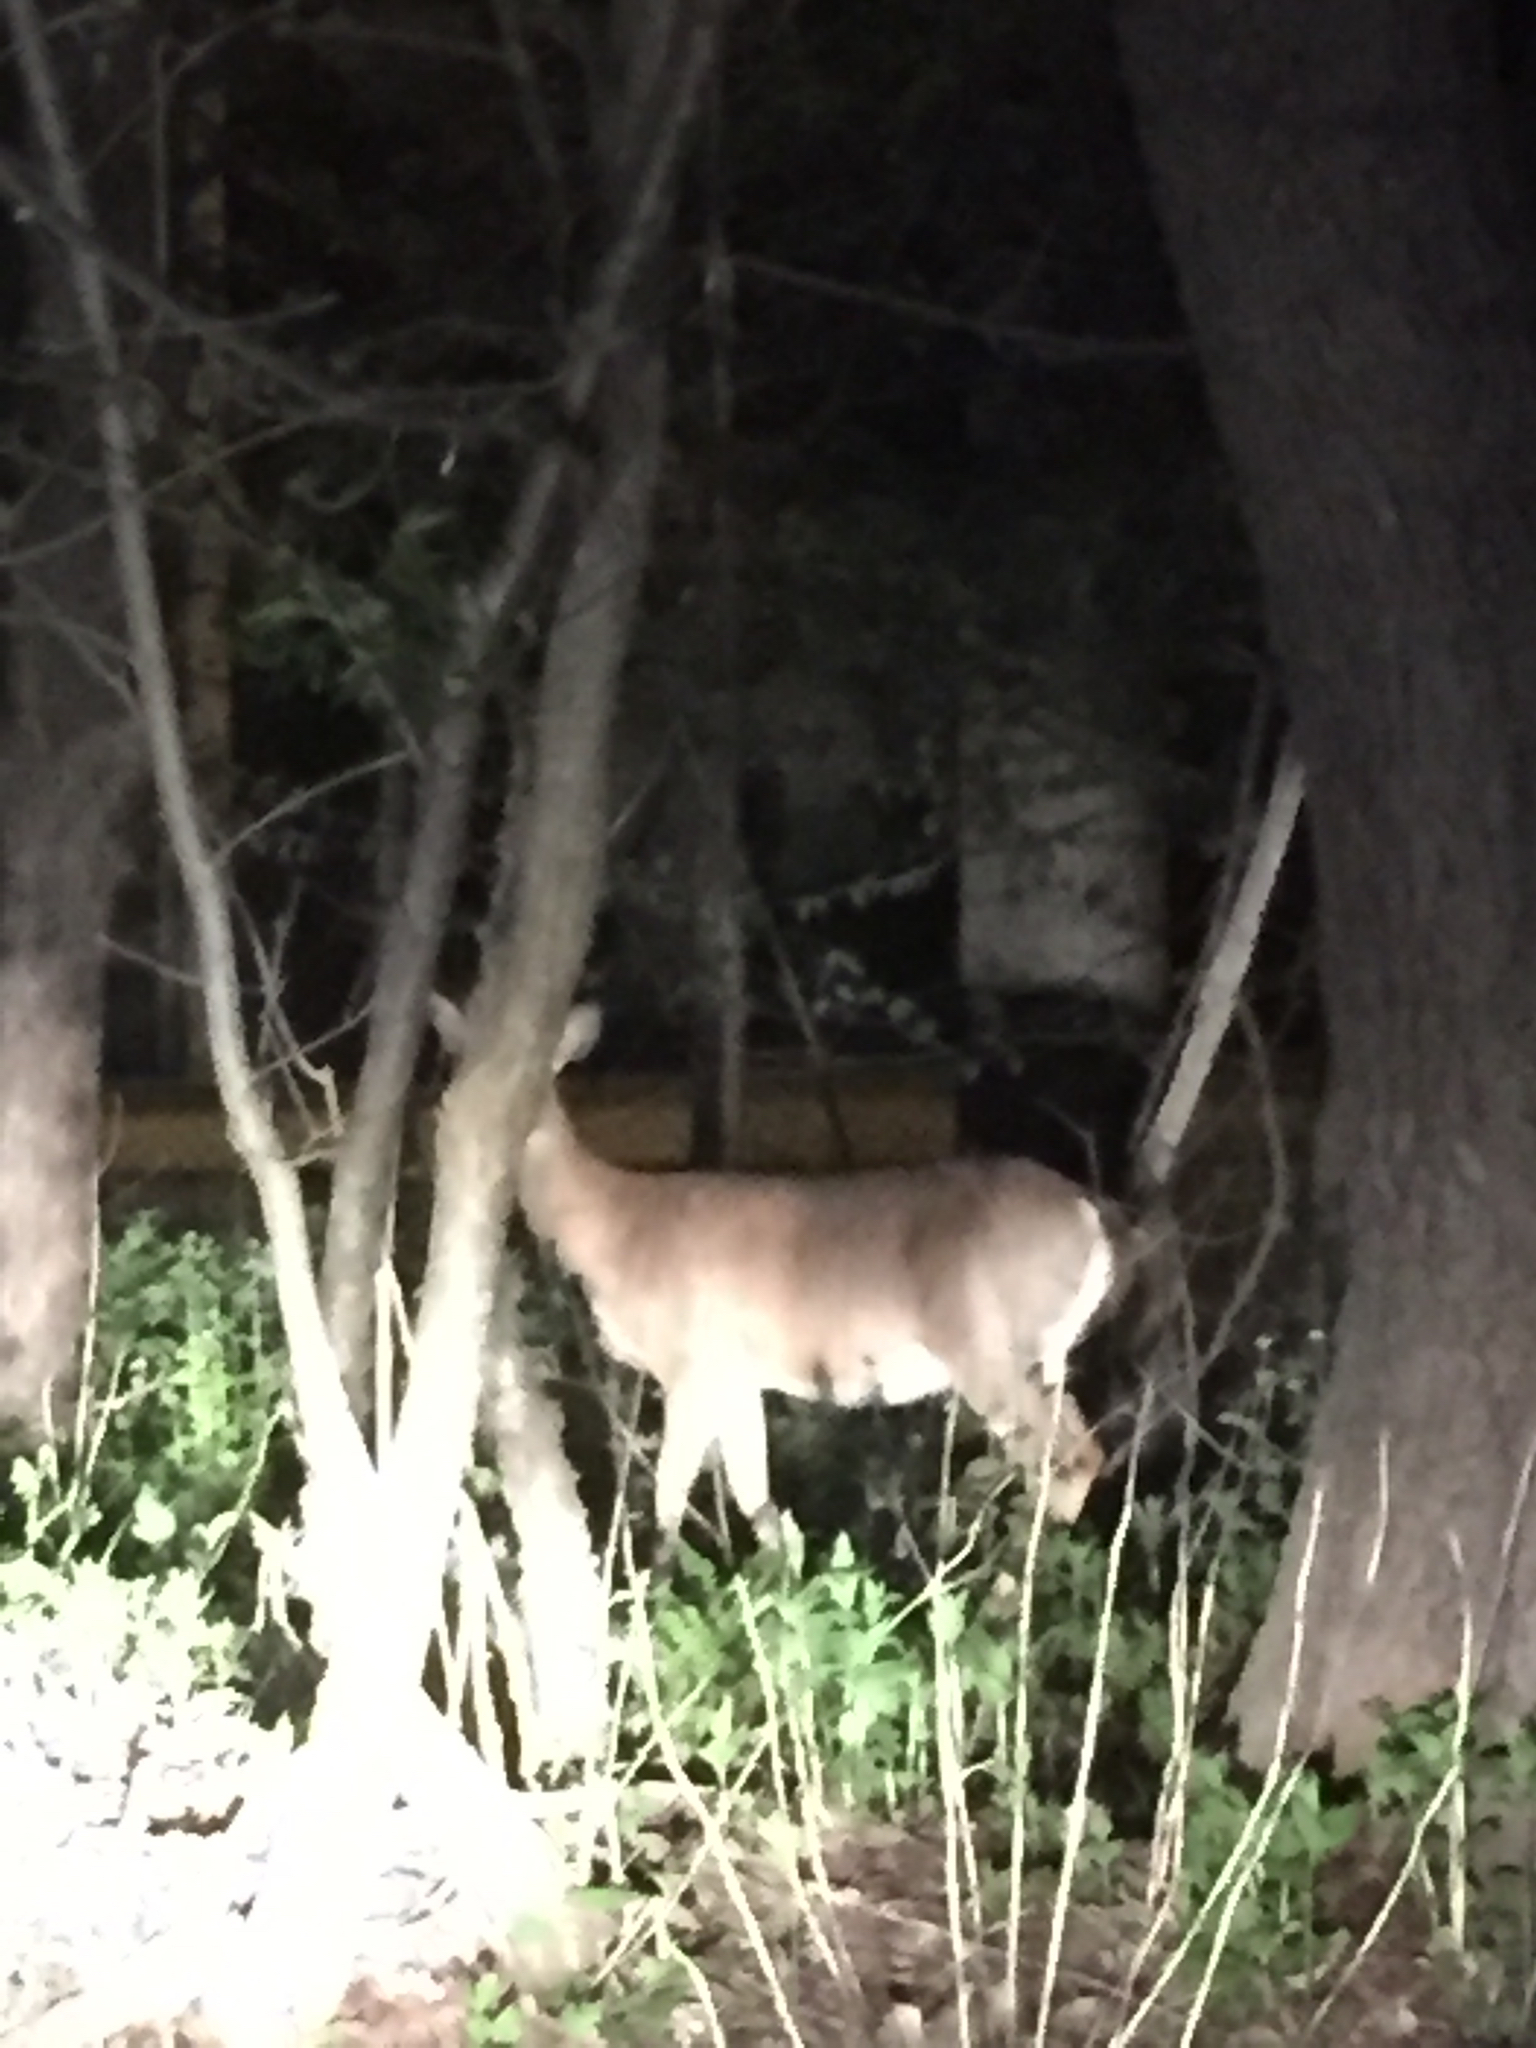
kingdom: Animalia
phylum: Chordata
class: Mammalia
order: Artiodactyla
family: Cervidae
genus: Odocoileus
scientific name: Odocoileus virginianus
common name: White-tailed deer
